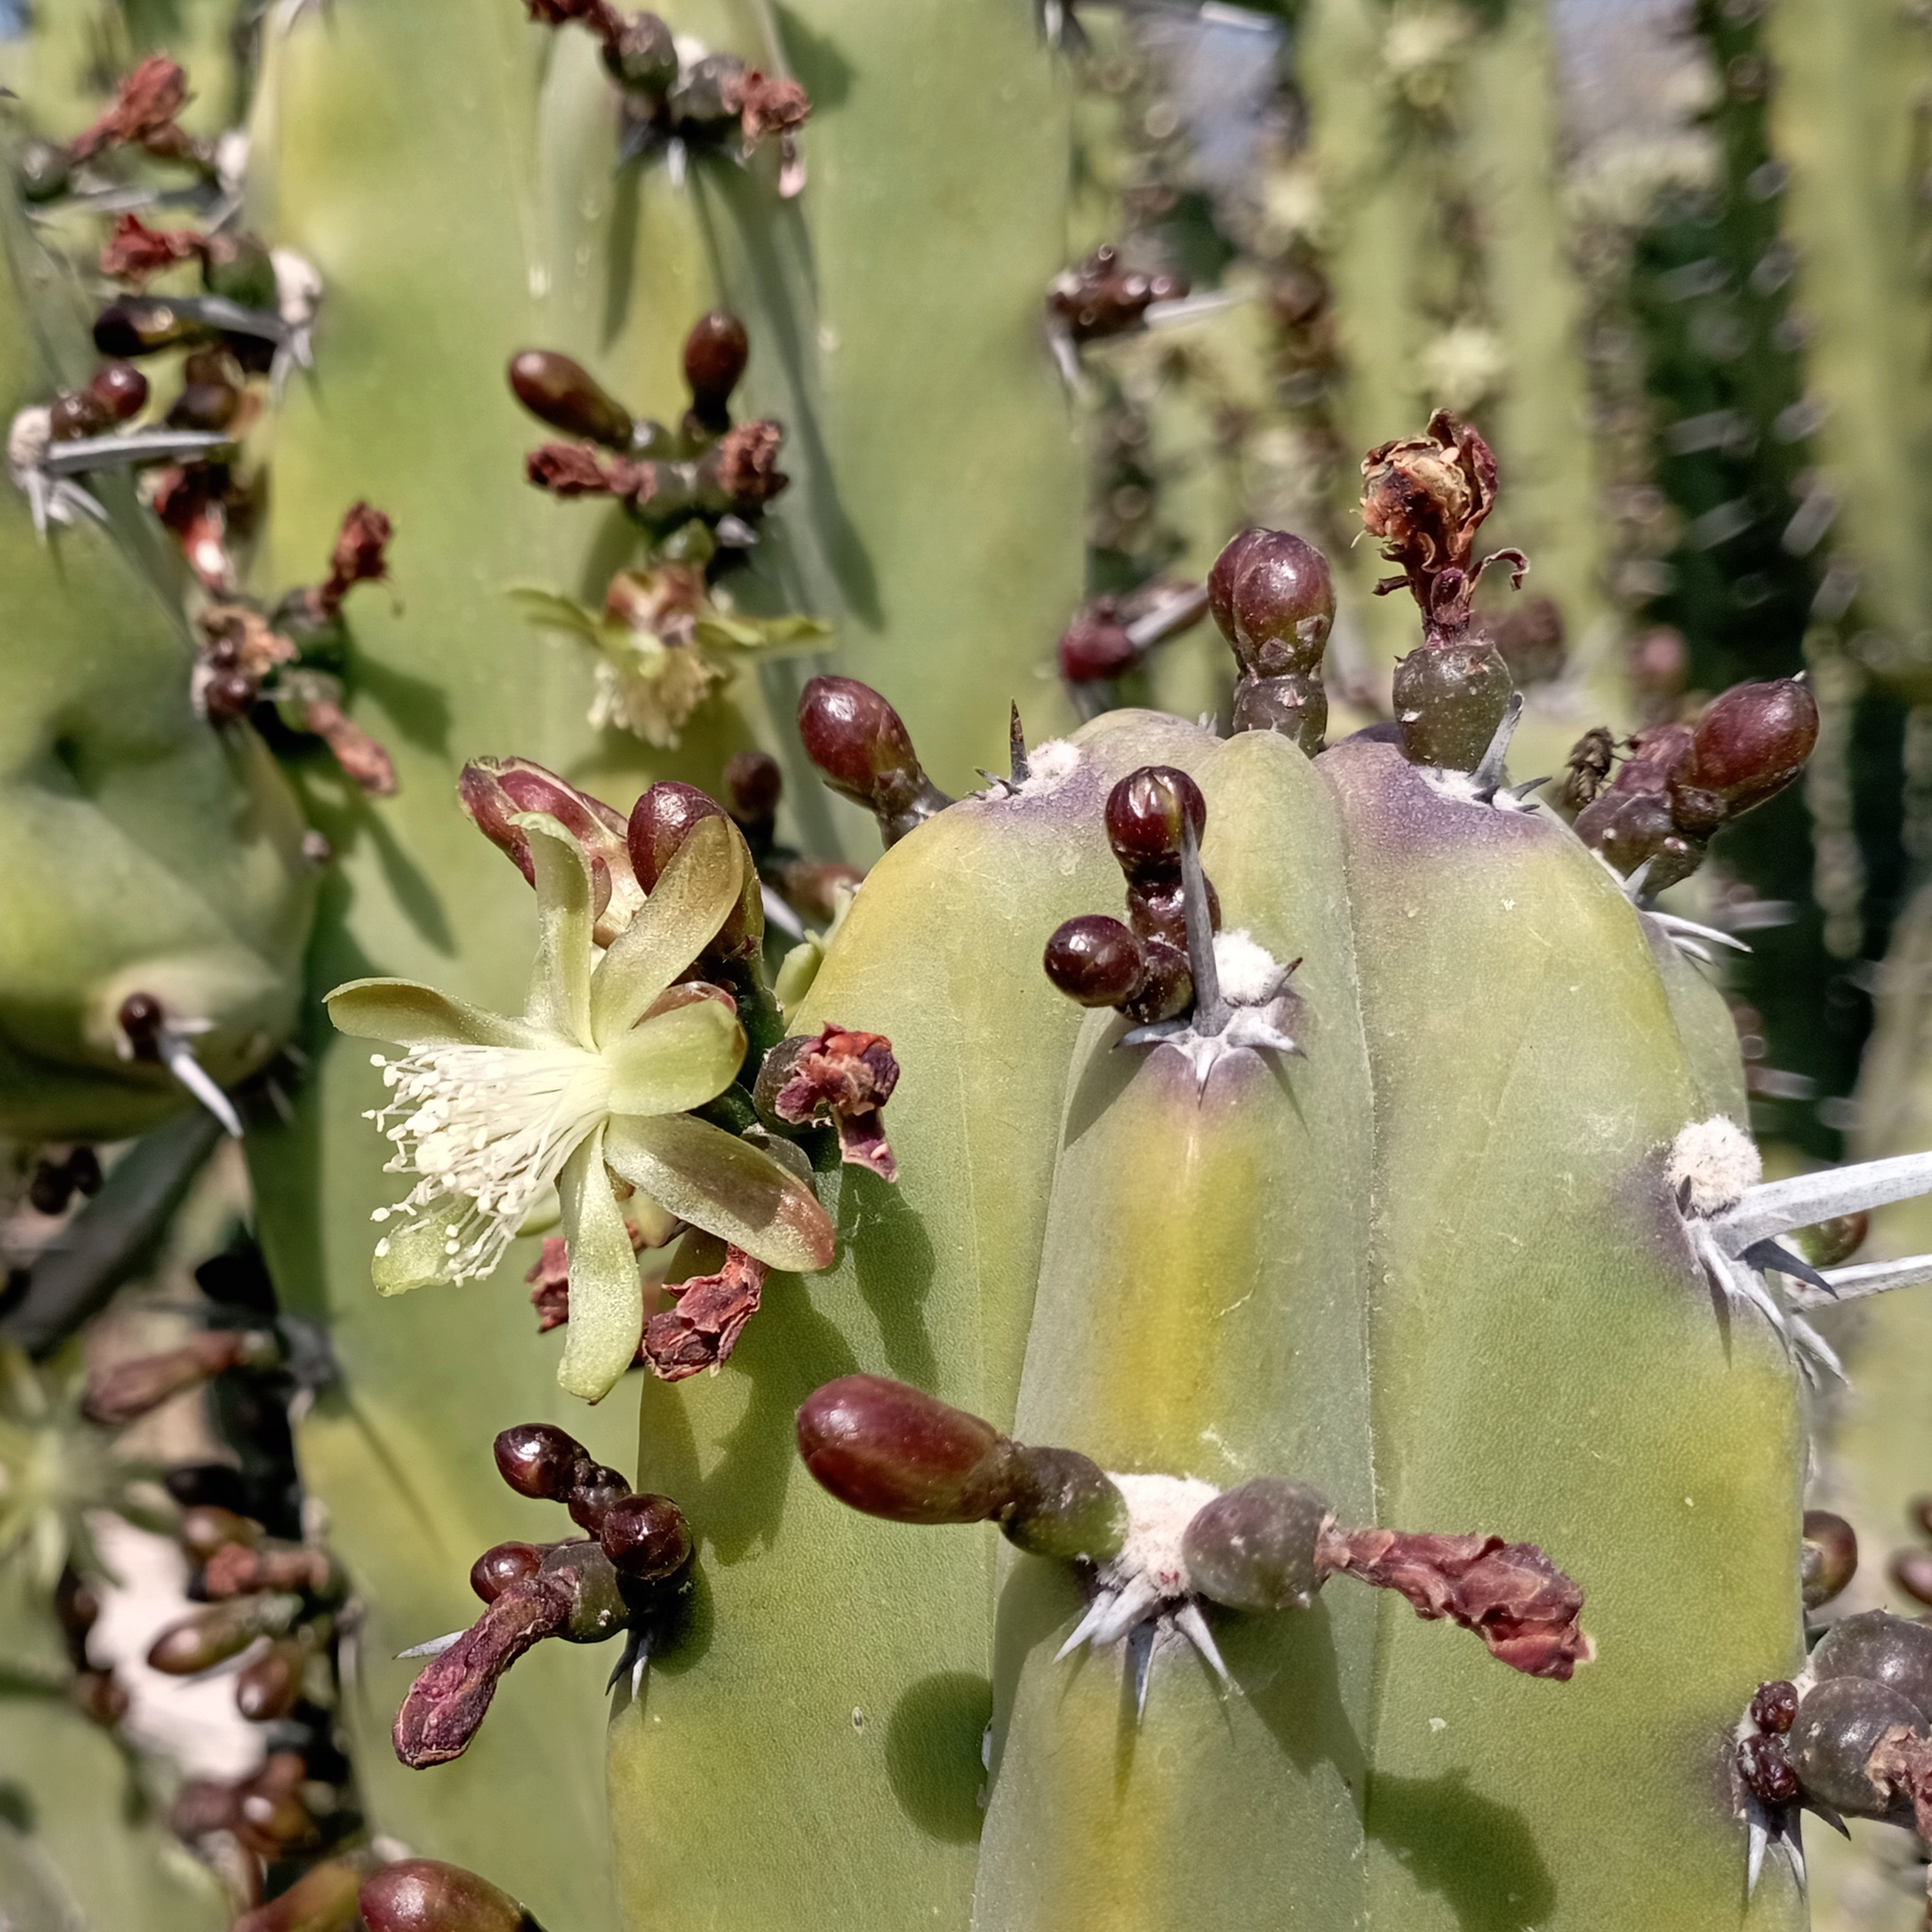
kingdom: Plantae
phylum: Tracheophyta
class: Magnoliopsida
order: Caryophyllales
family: Cactaceae
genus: Myrtillocactus
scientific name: Myrtillocactus geometrizans
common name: Bilberry cactus
